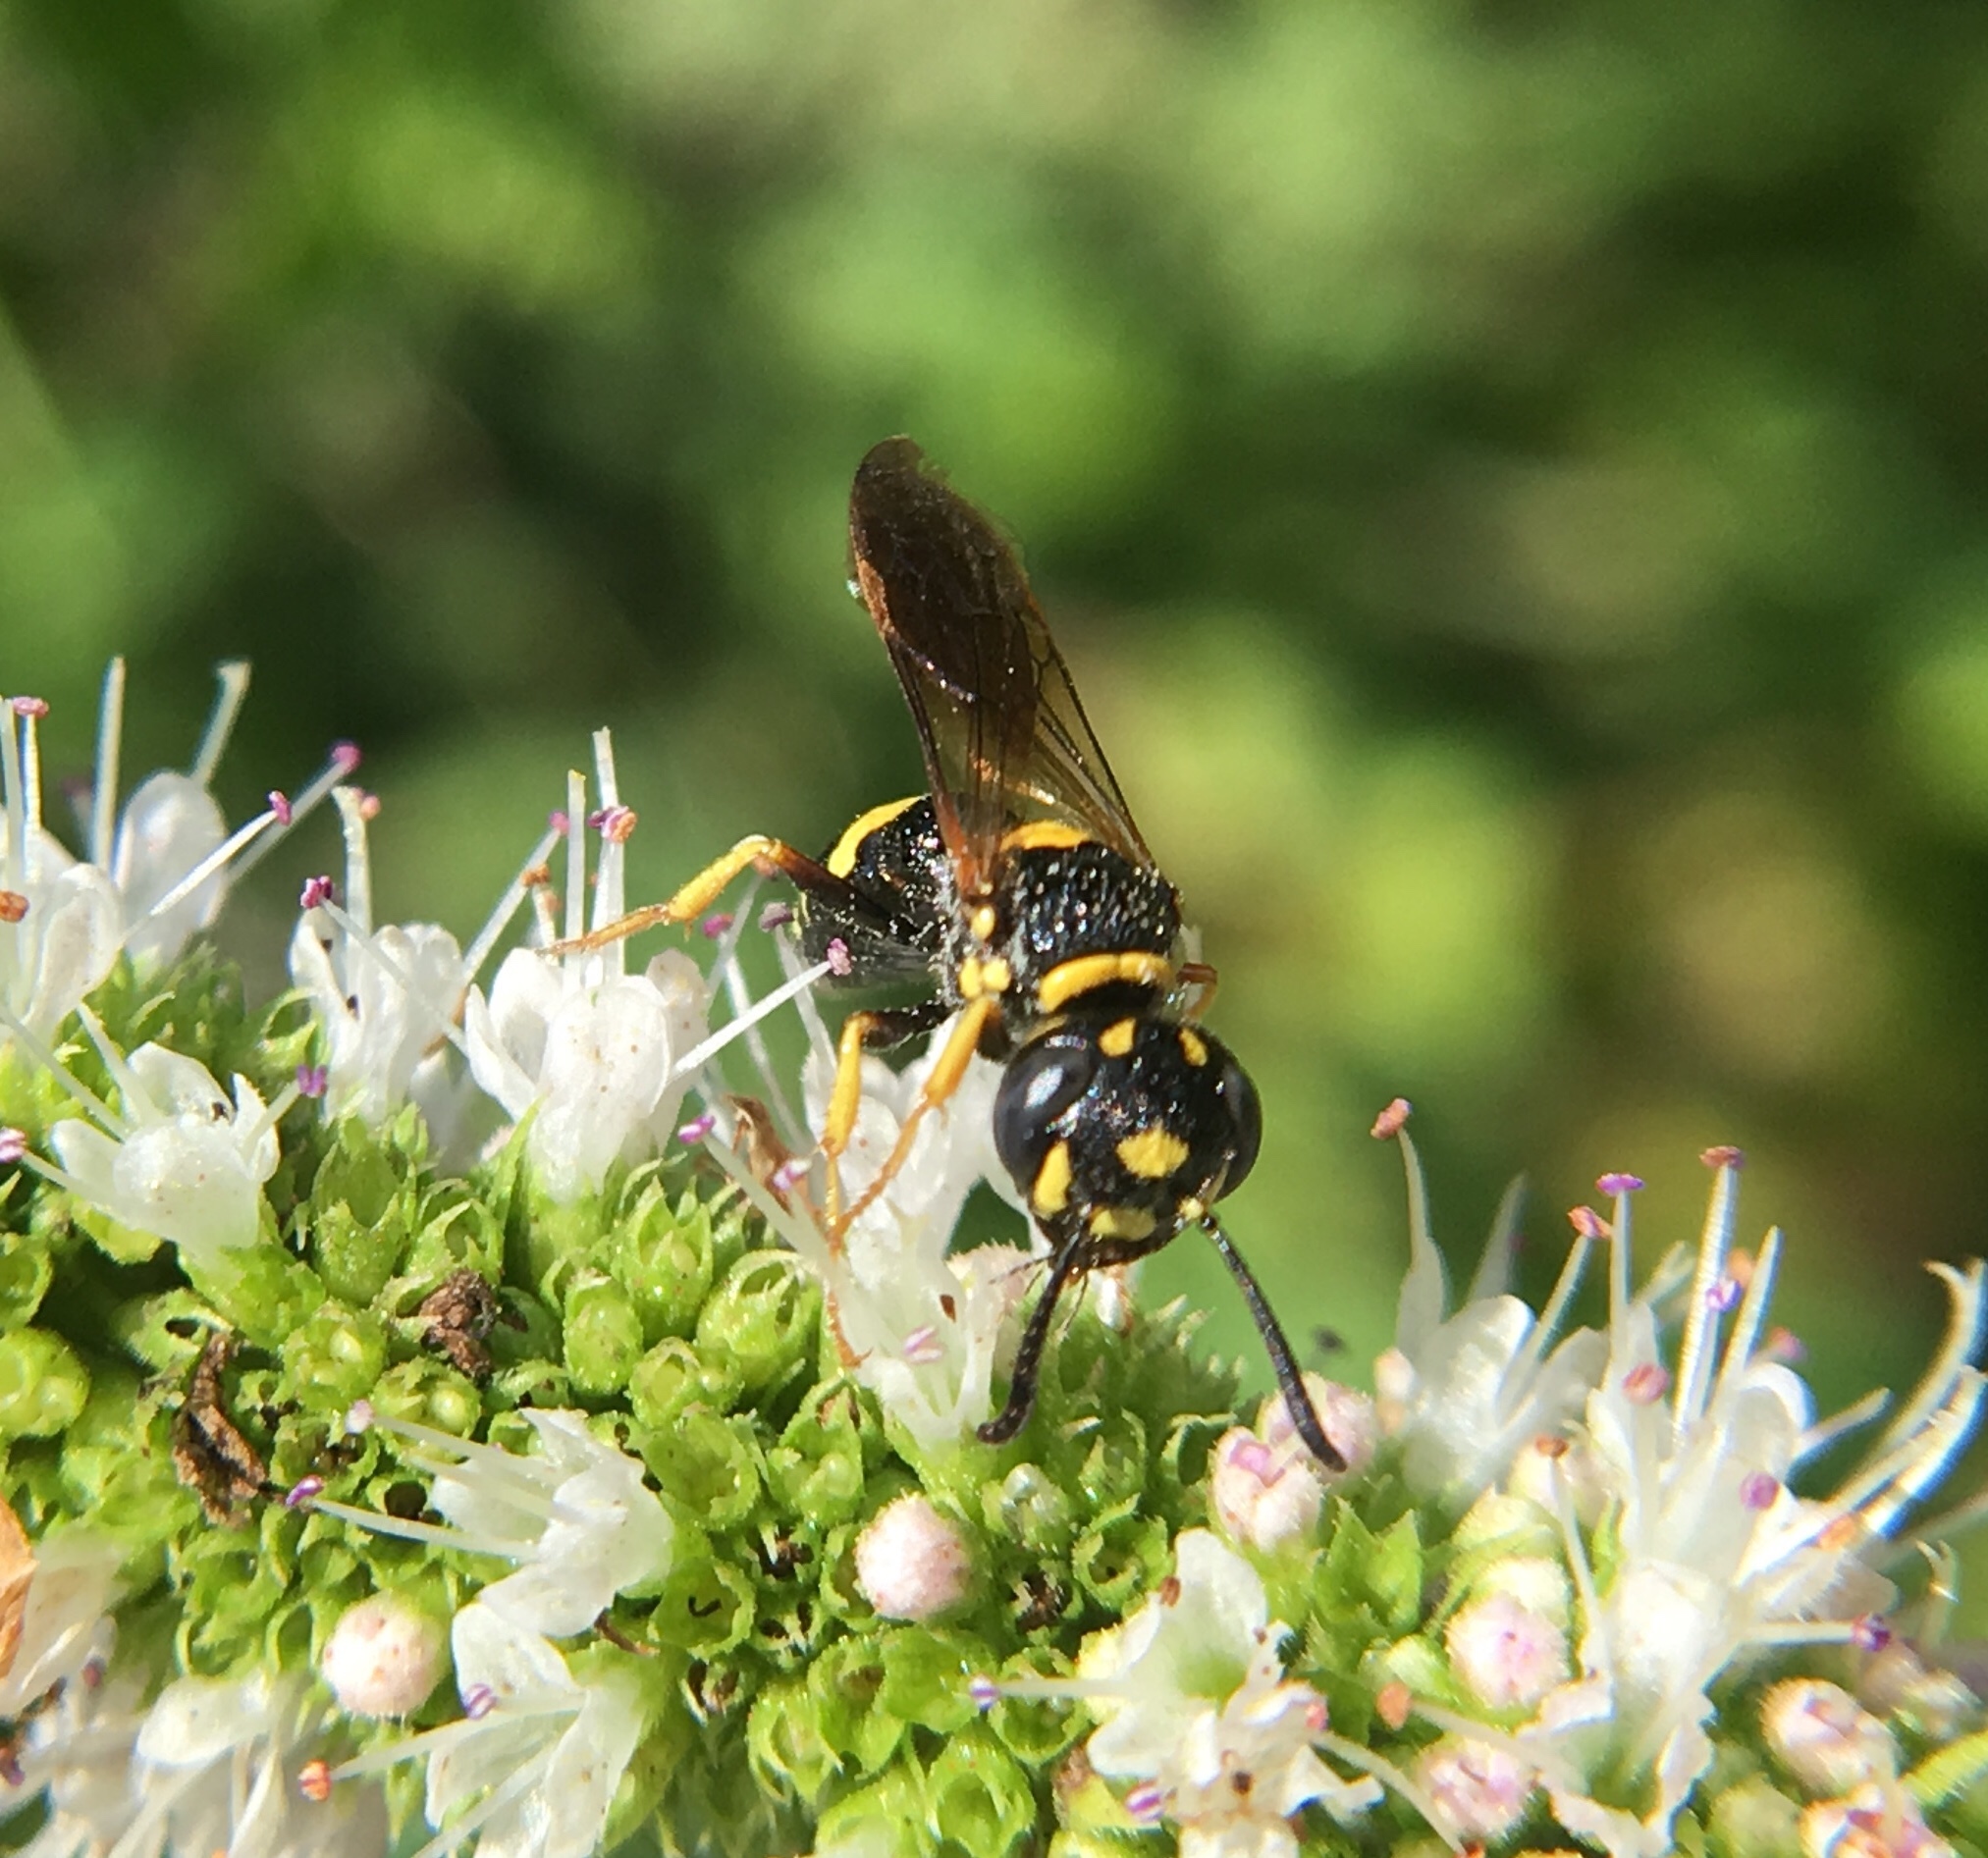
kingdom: Animalia
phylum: Arthropoda
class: Insecta
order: Hymenoptera
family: Crabronidae
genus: Philanthus
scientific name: Philanthus gibbosus
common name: Humped beewolf
